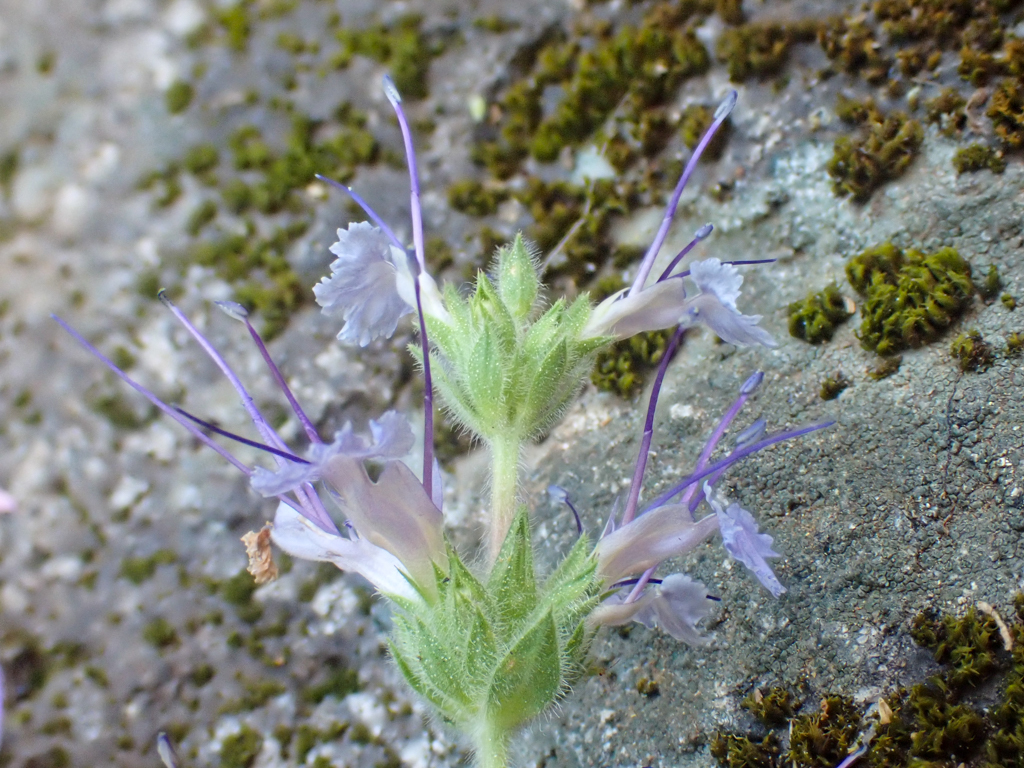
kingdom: Plantae
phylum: Tracheophyta
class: Magnoliopsida
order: Lamiales
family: Lamiaceae
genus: Salvia
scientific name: Salvia sonomensis
